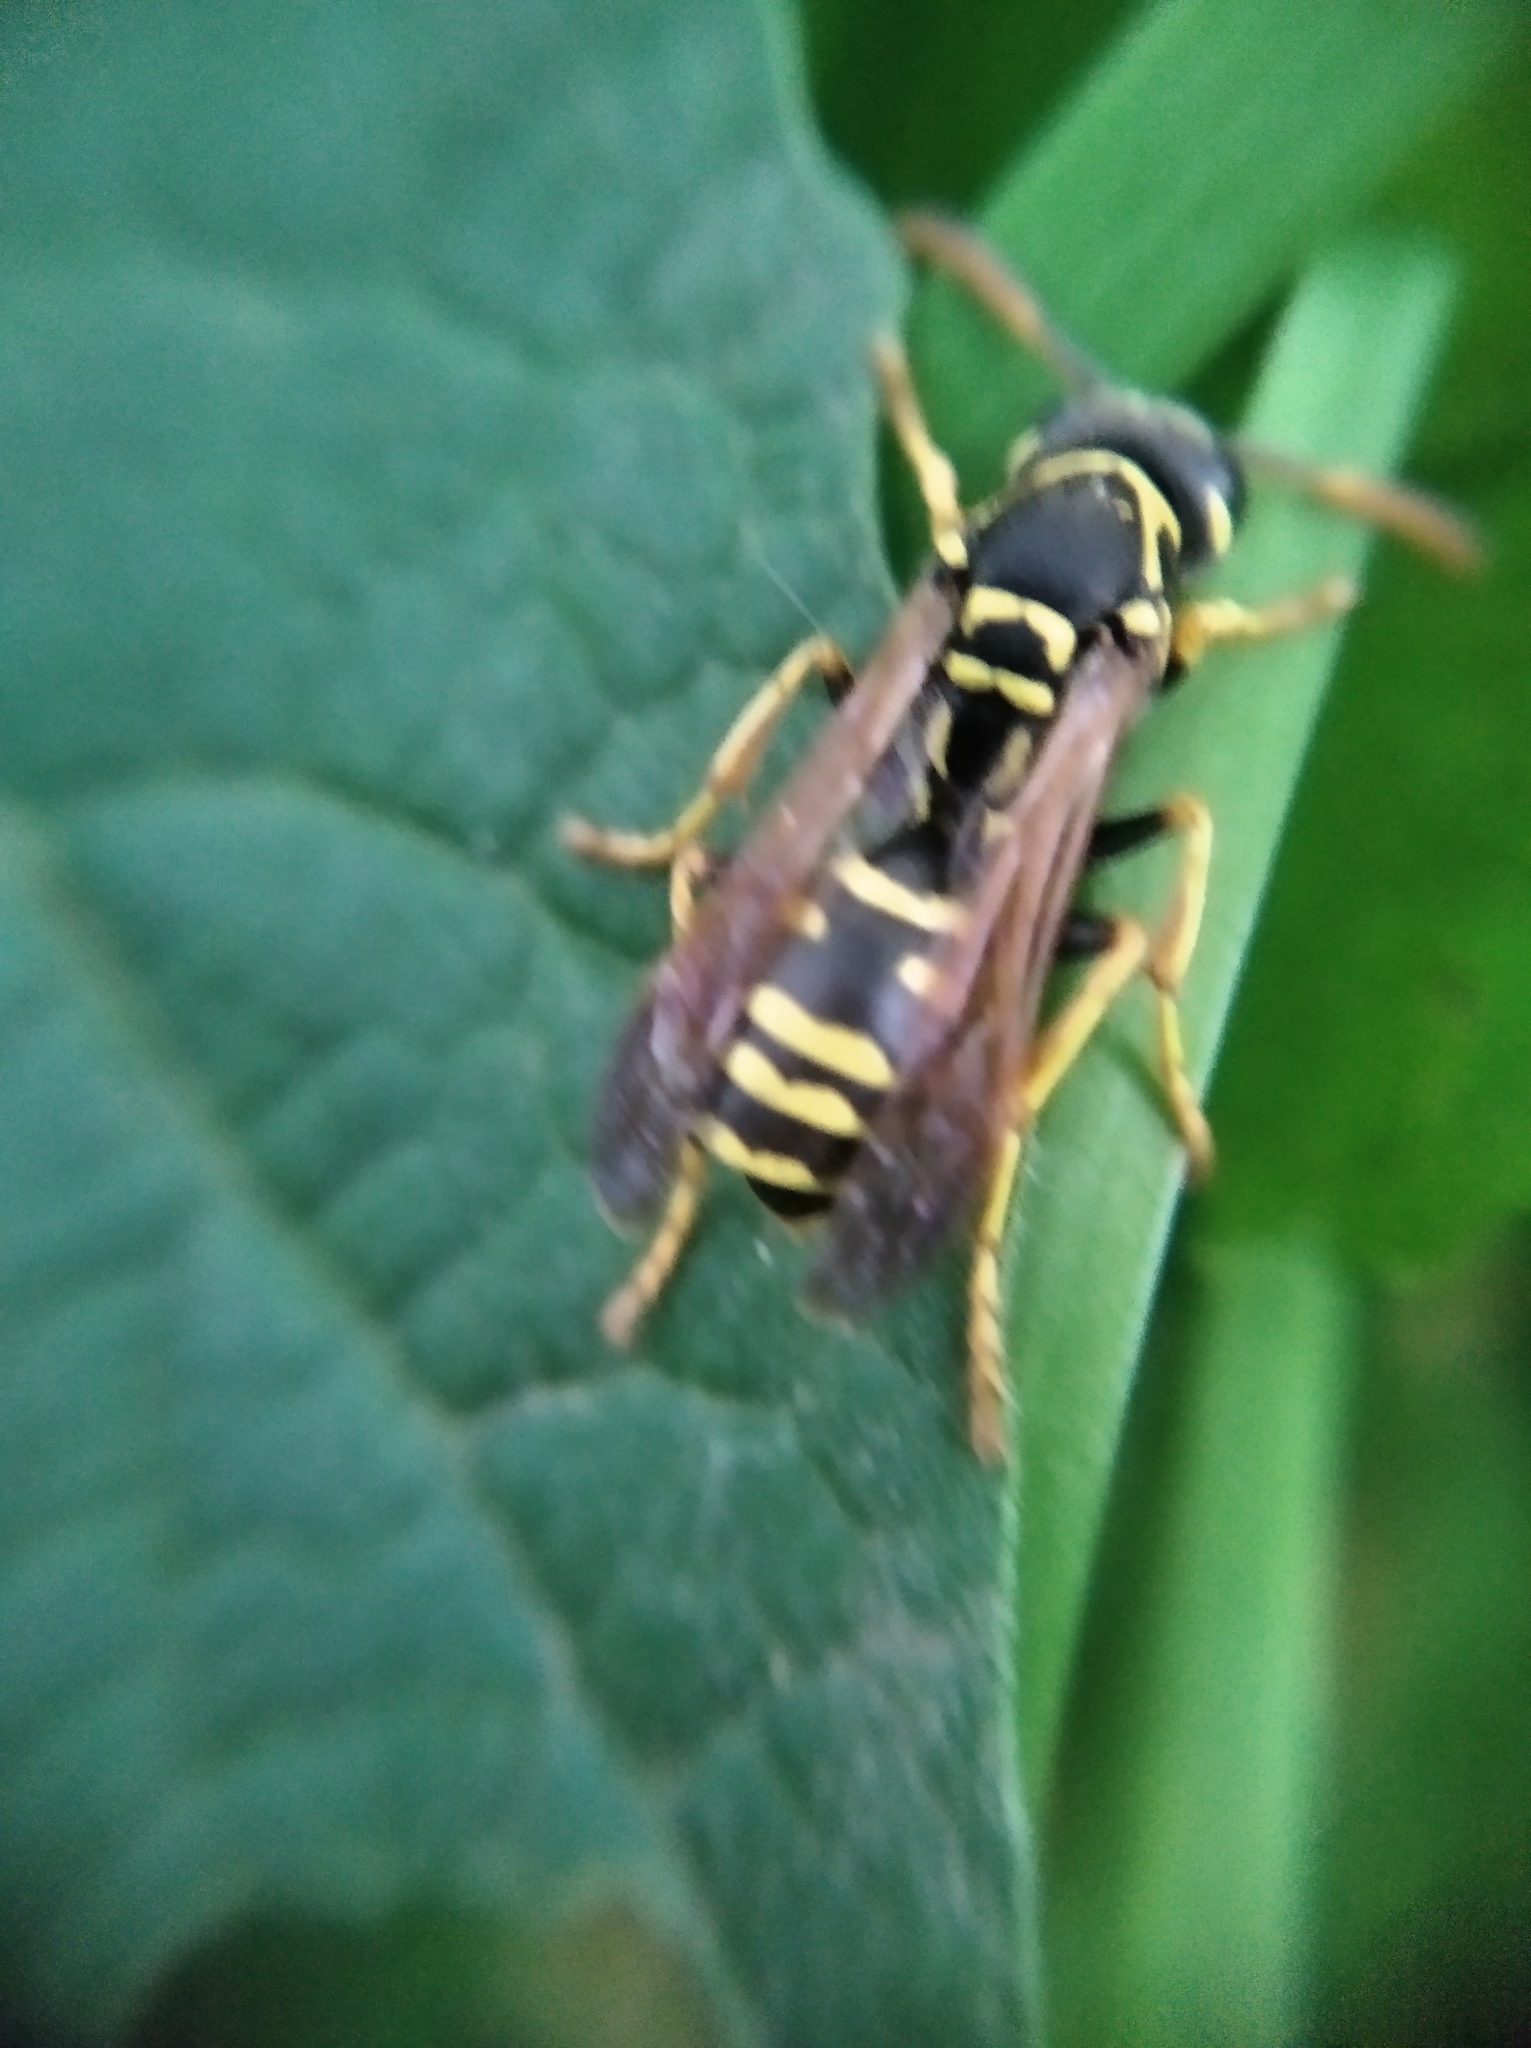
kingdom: Animalia
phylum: Arthropoda
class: Insecta
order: Hymenoptera
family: Eumenidae
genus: Polistes
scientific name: Polistes nimpha
